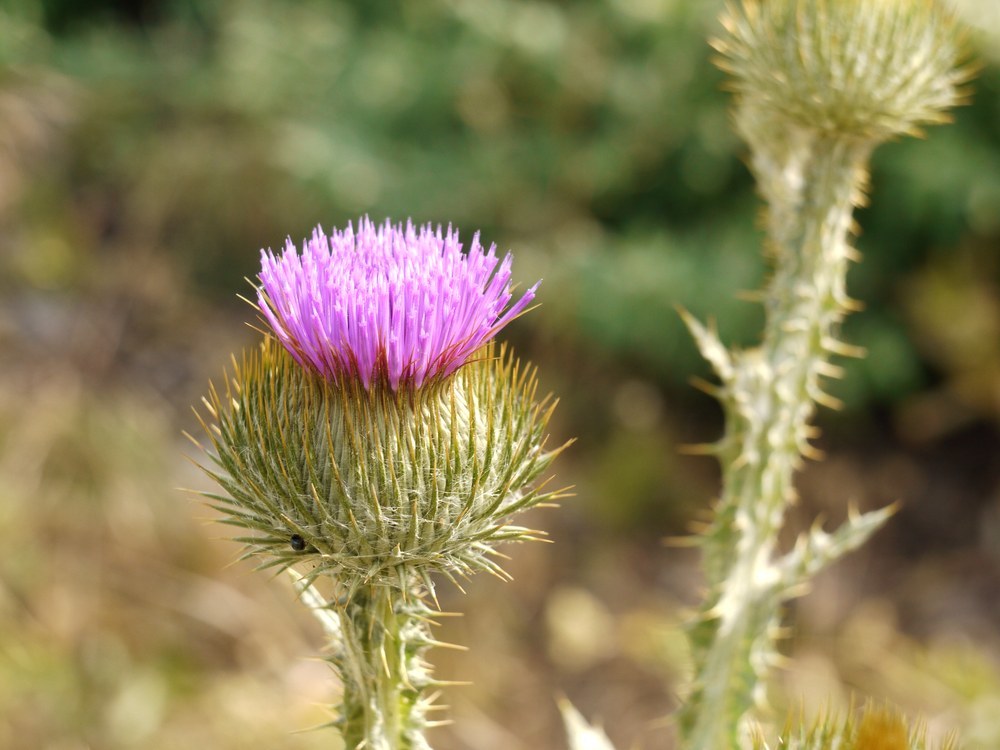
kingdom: Plantae
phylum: Tracheophyta
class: Magnoliopsida
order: Asterales
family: Asteraceae
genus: Onopordum
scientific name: Onopordum acanthium
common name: Scotch thistle
